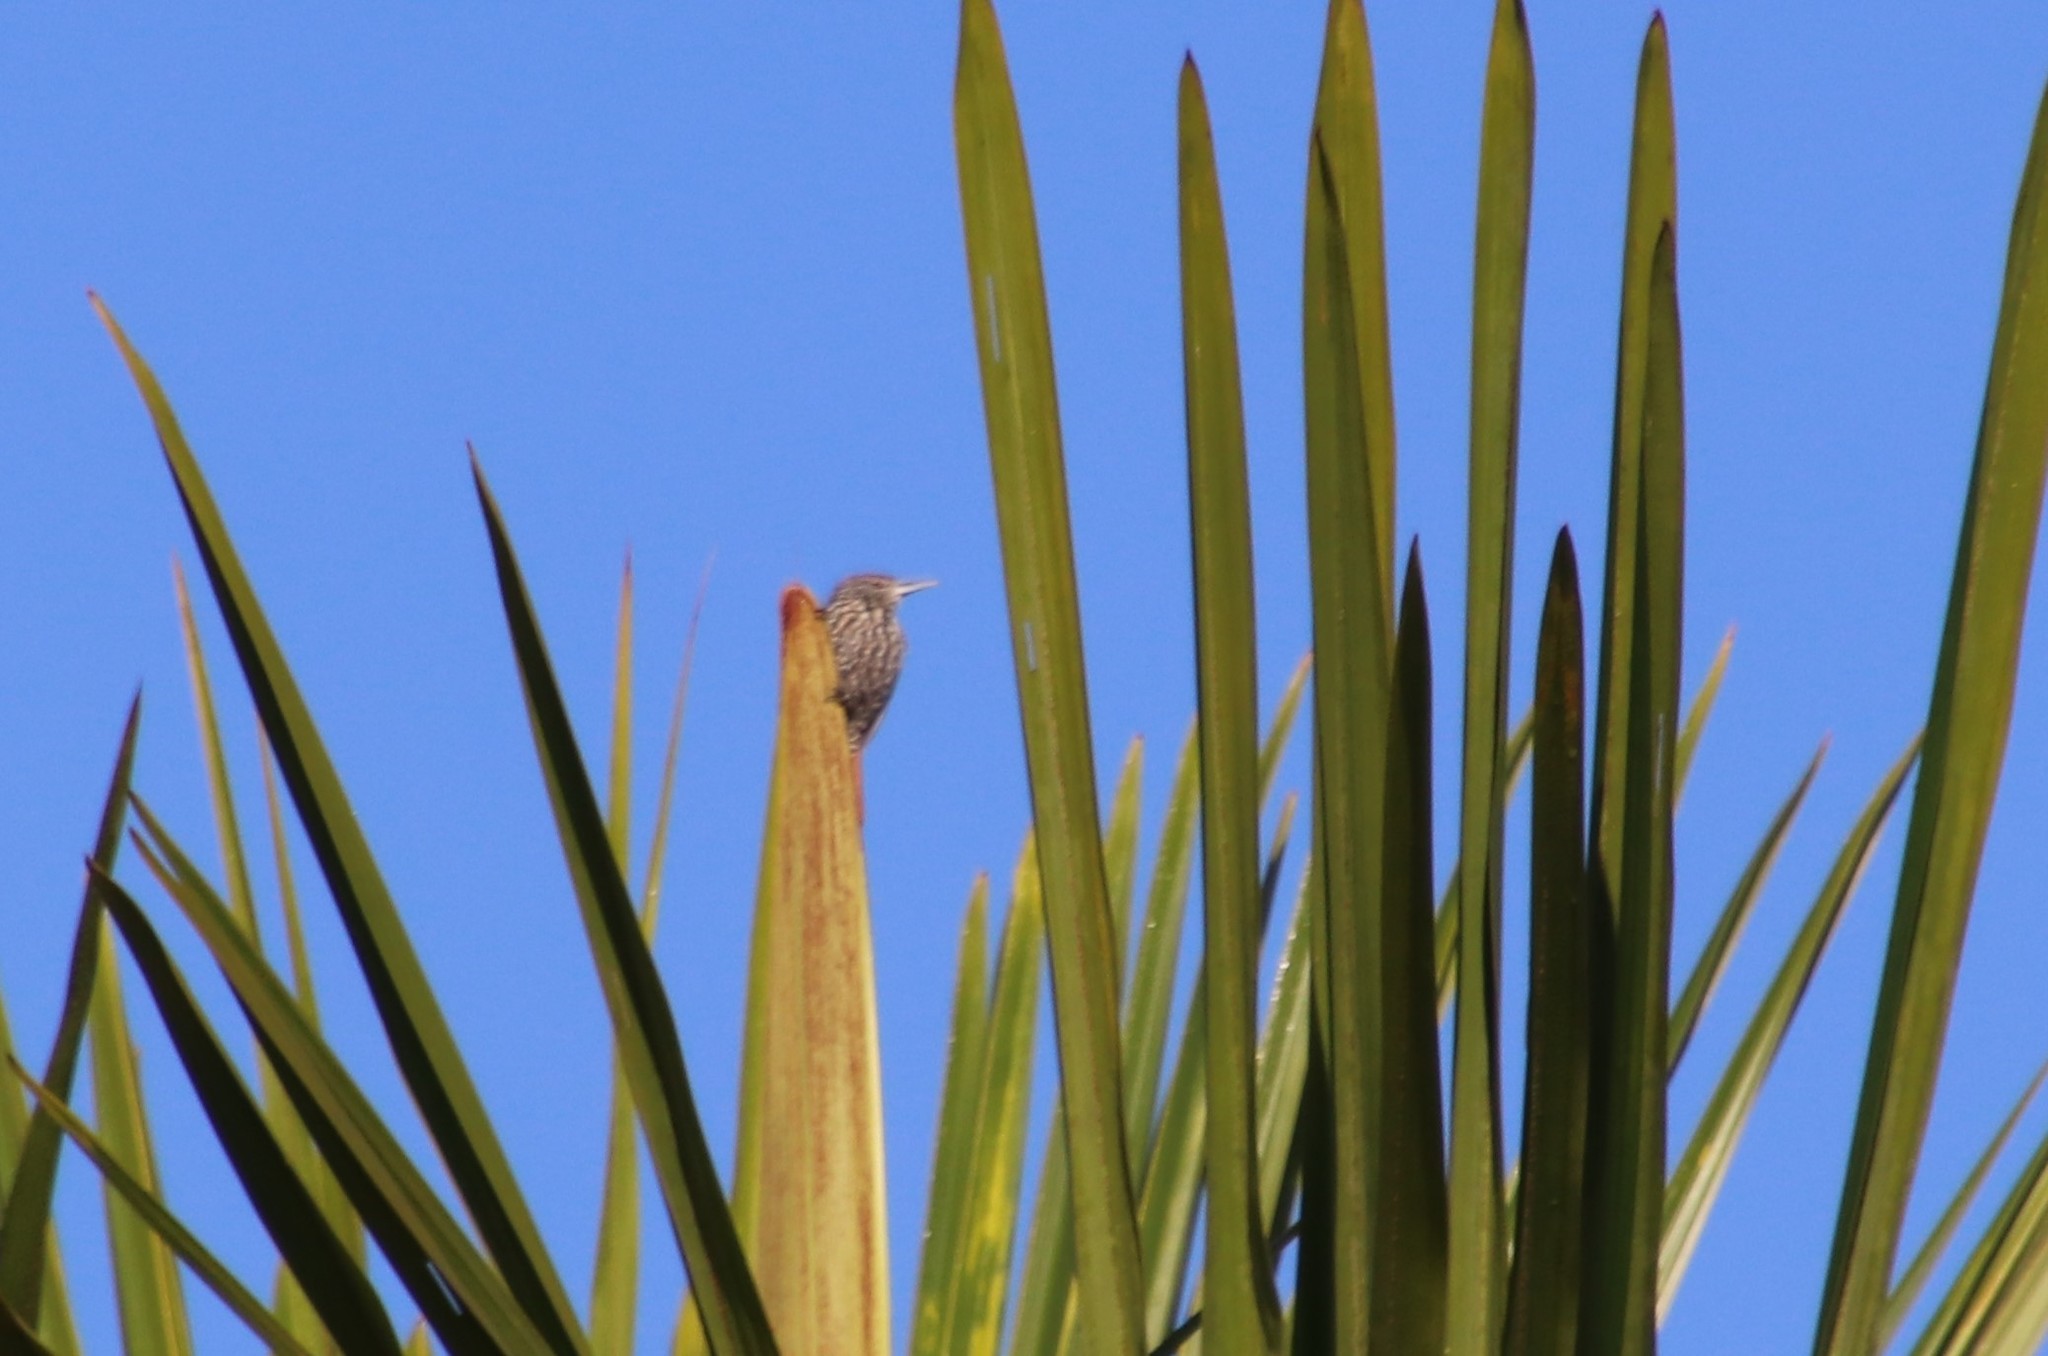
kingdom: Animalia
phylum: Chordata
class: Aves
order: Passeriformes
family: Furnariidae
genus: Berlepschia
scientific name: Berlepschia rikeri
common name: Point-tailed palmcreeper
